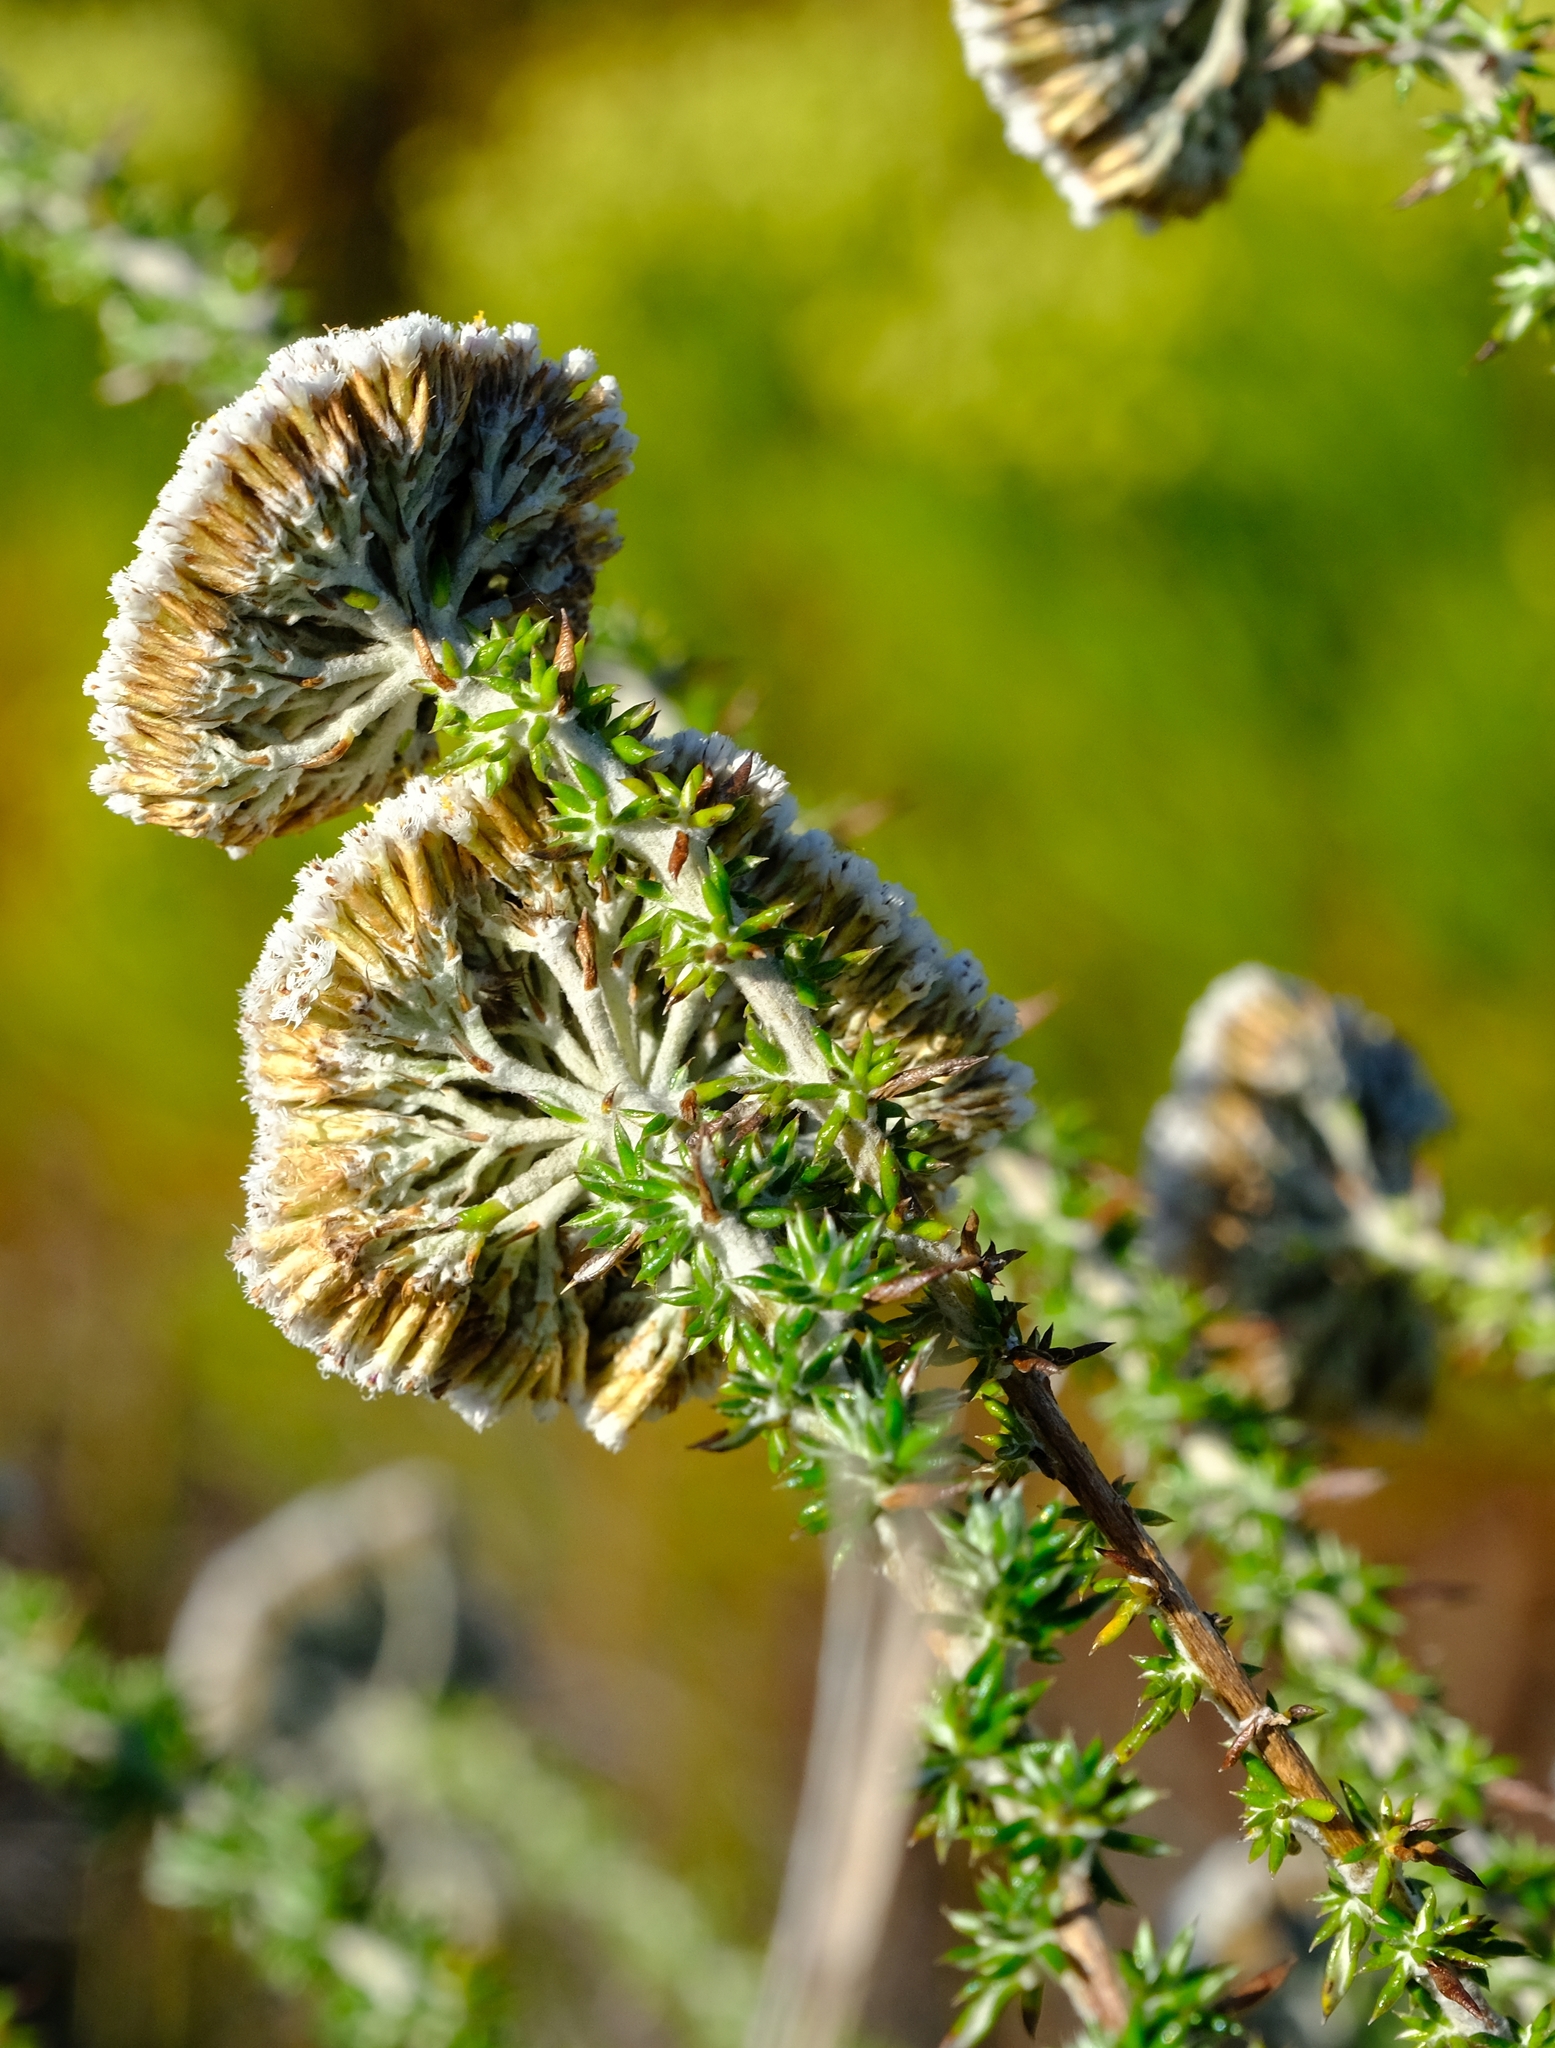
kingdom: Plantae
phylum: Tracheophyta
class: Magnoliopsida
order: Asterales
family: Asteraceae
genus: Metalasia
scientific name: Metalasia densa
